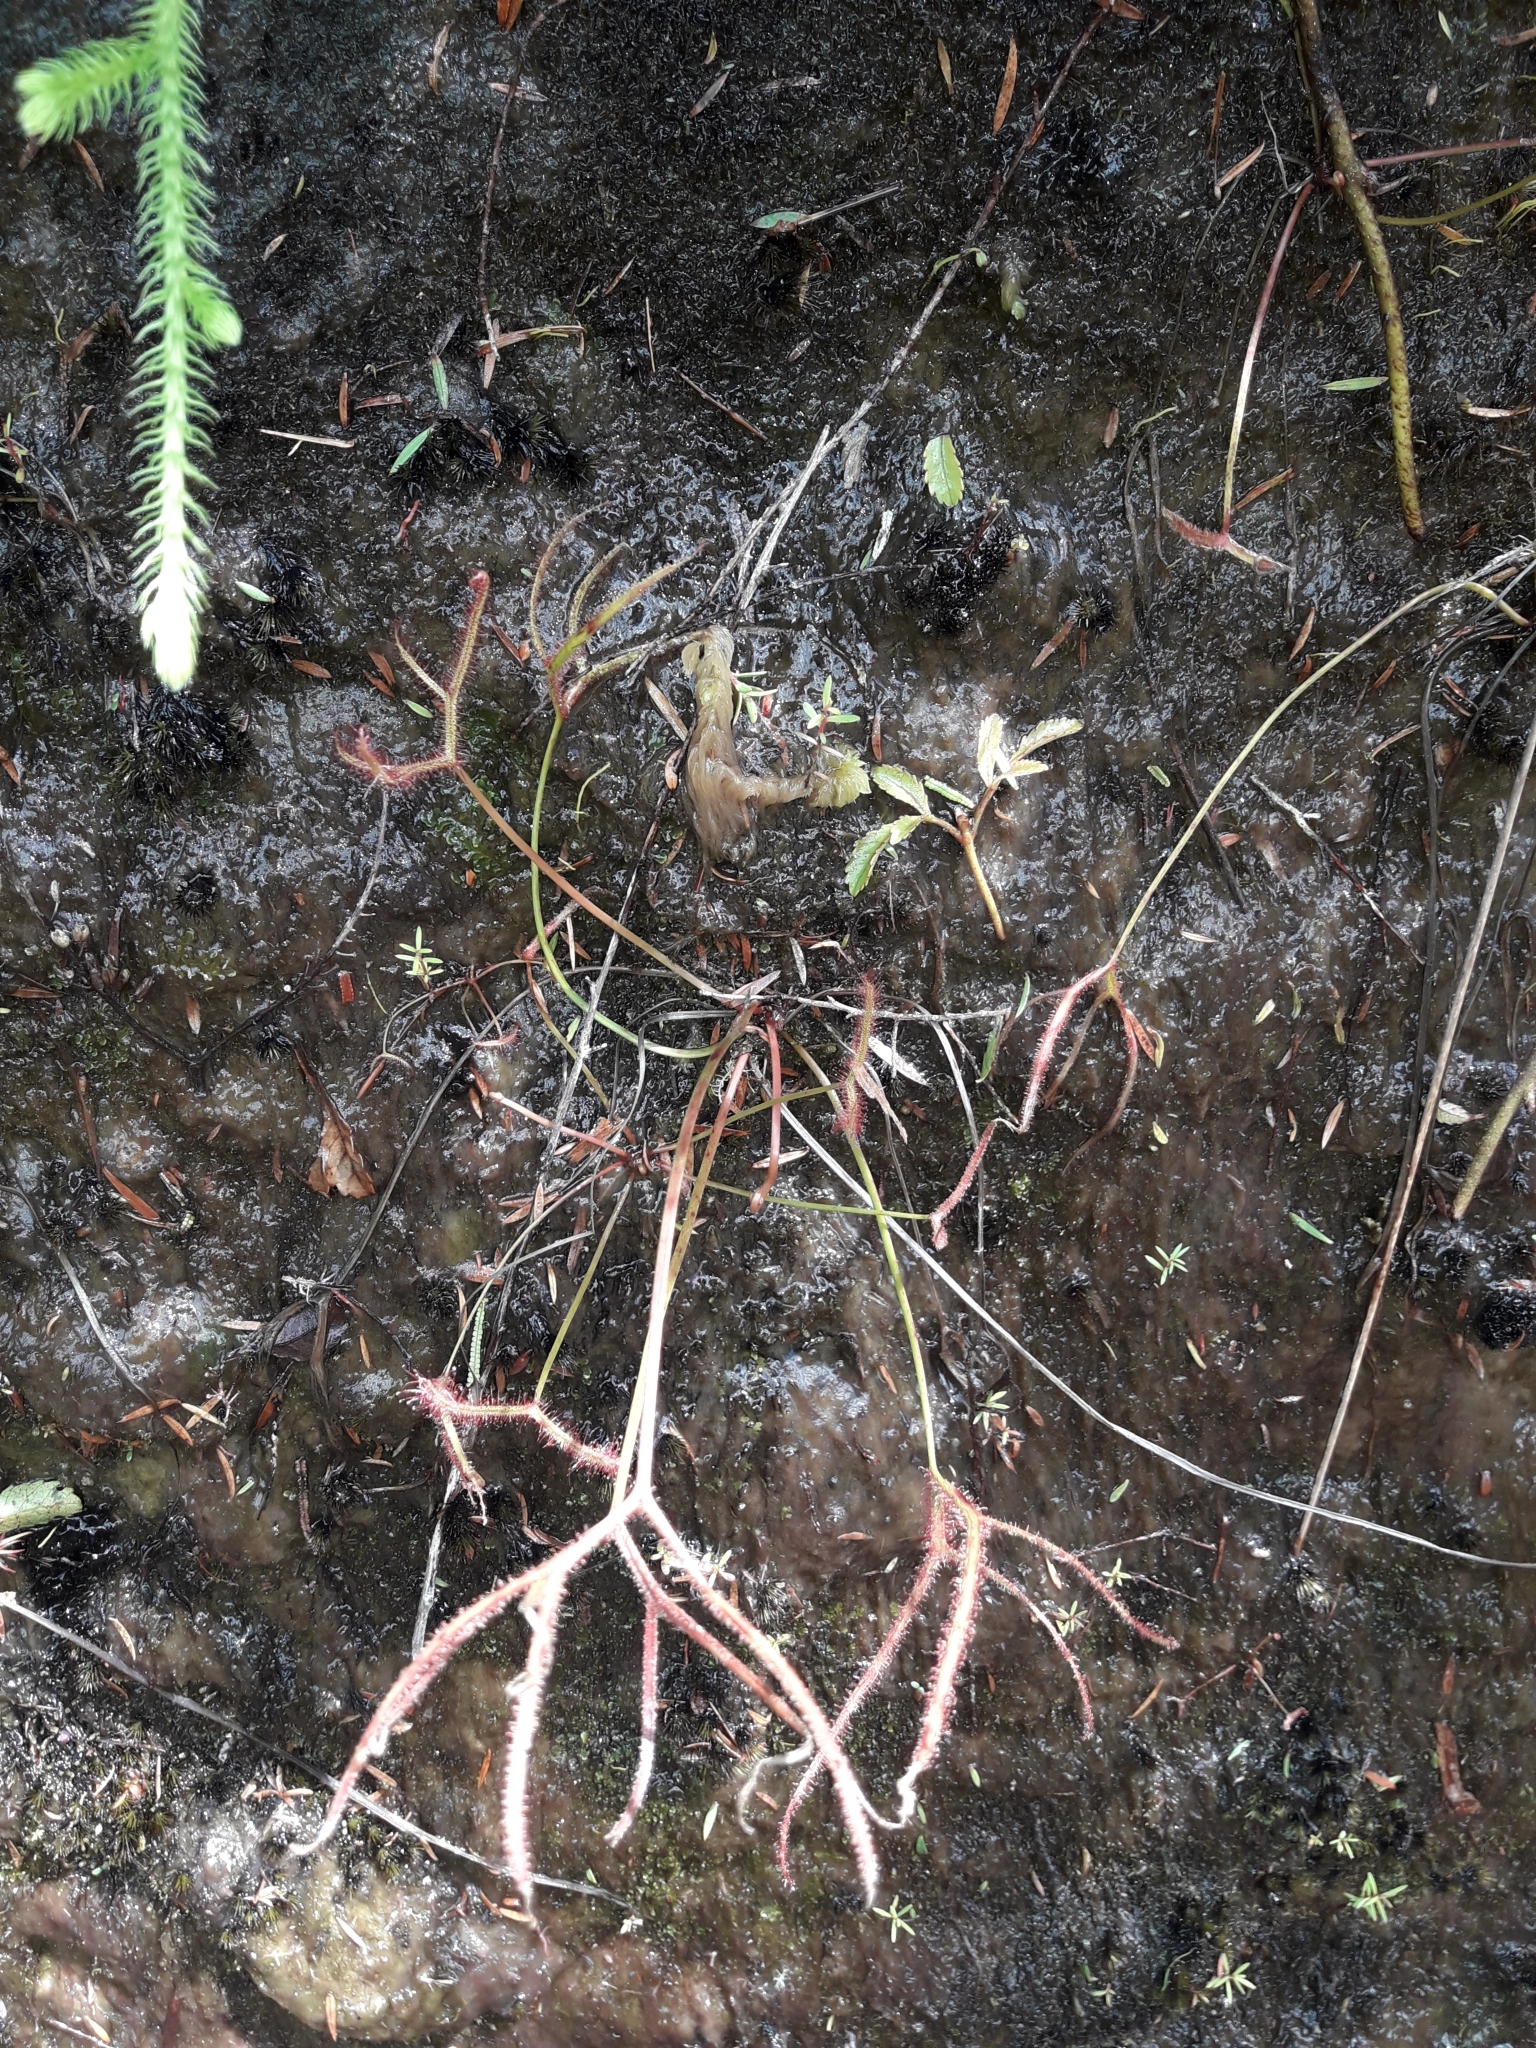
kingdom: Plantae
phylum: Tracheophyta
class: Magnoliopsida
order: Caryophyllales
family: Droseraceae
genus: Drosera
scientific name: Drosera binata
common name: Forked sundew
